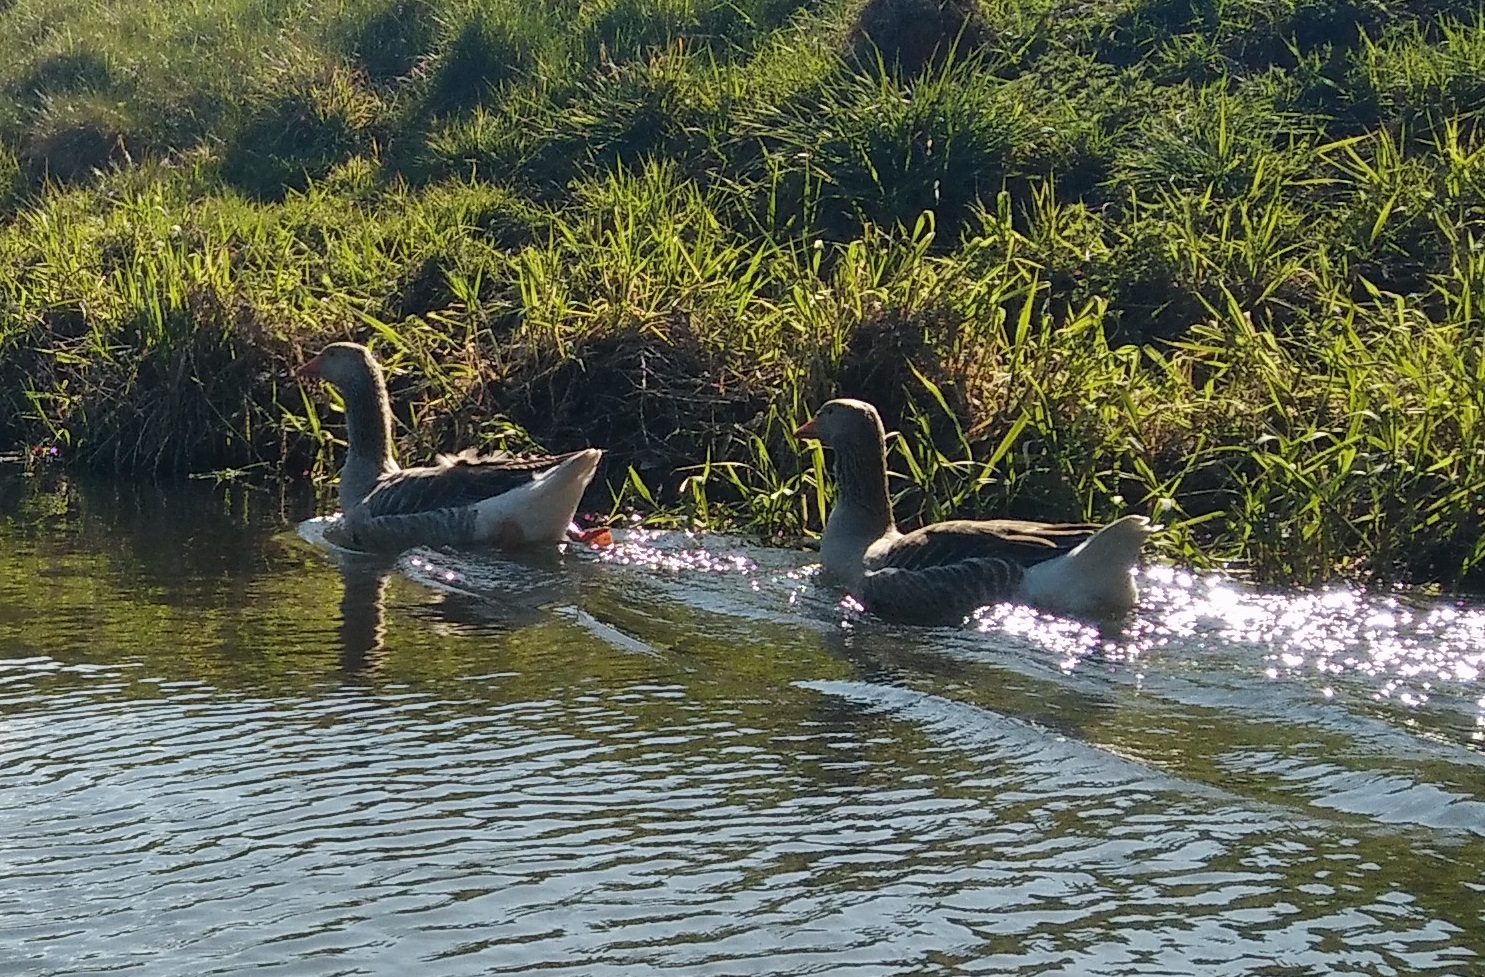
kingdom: Animalia
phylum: Chordata
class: Aves
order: Anseriformes
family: Anatidae
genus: Anser
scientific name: Anser anser
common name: Greylag goose
